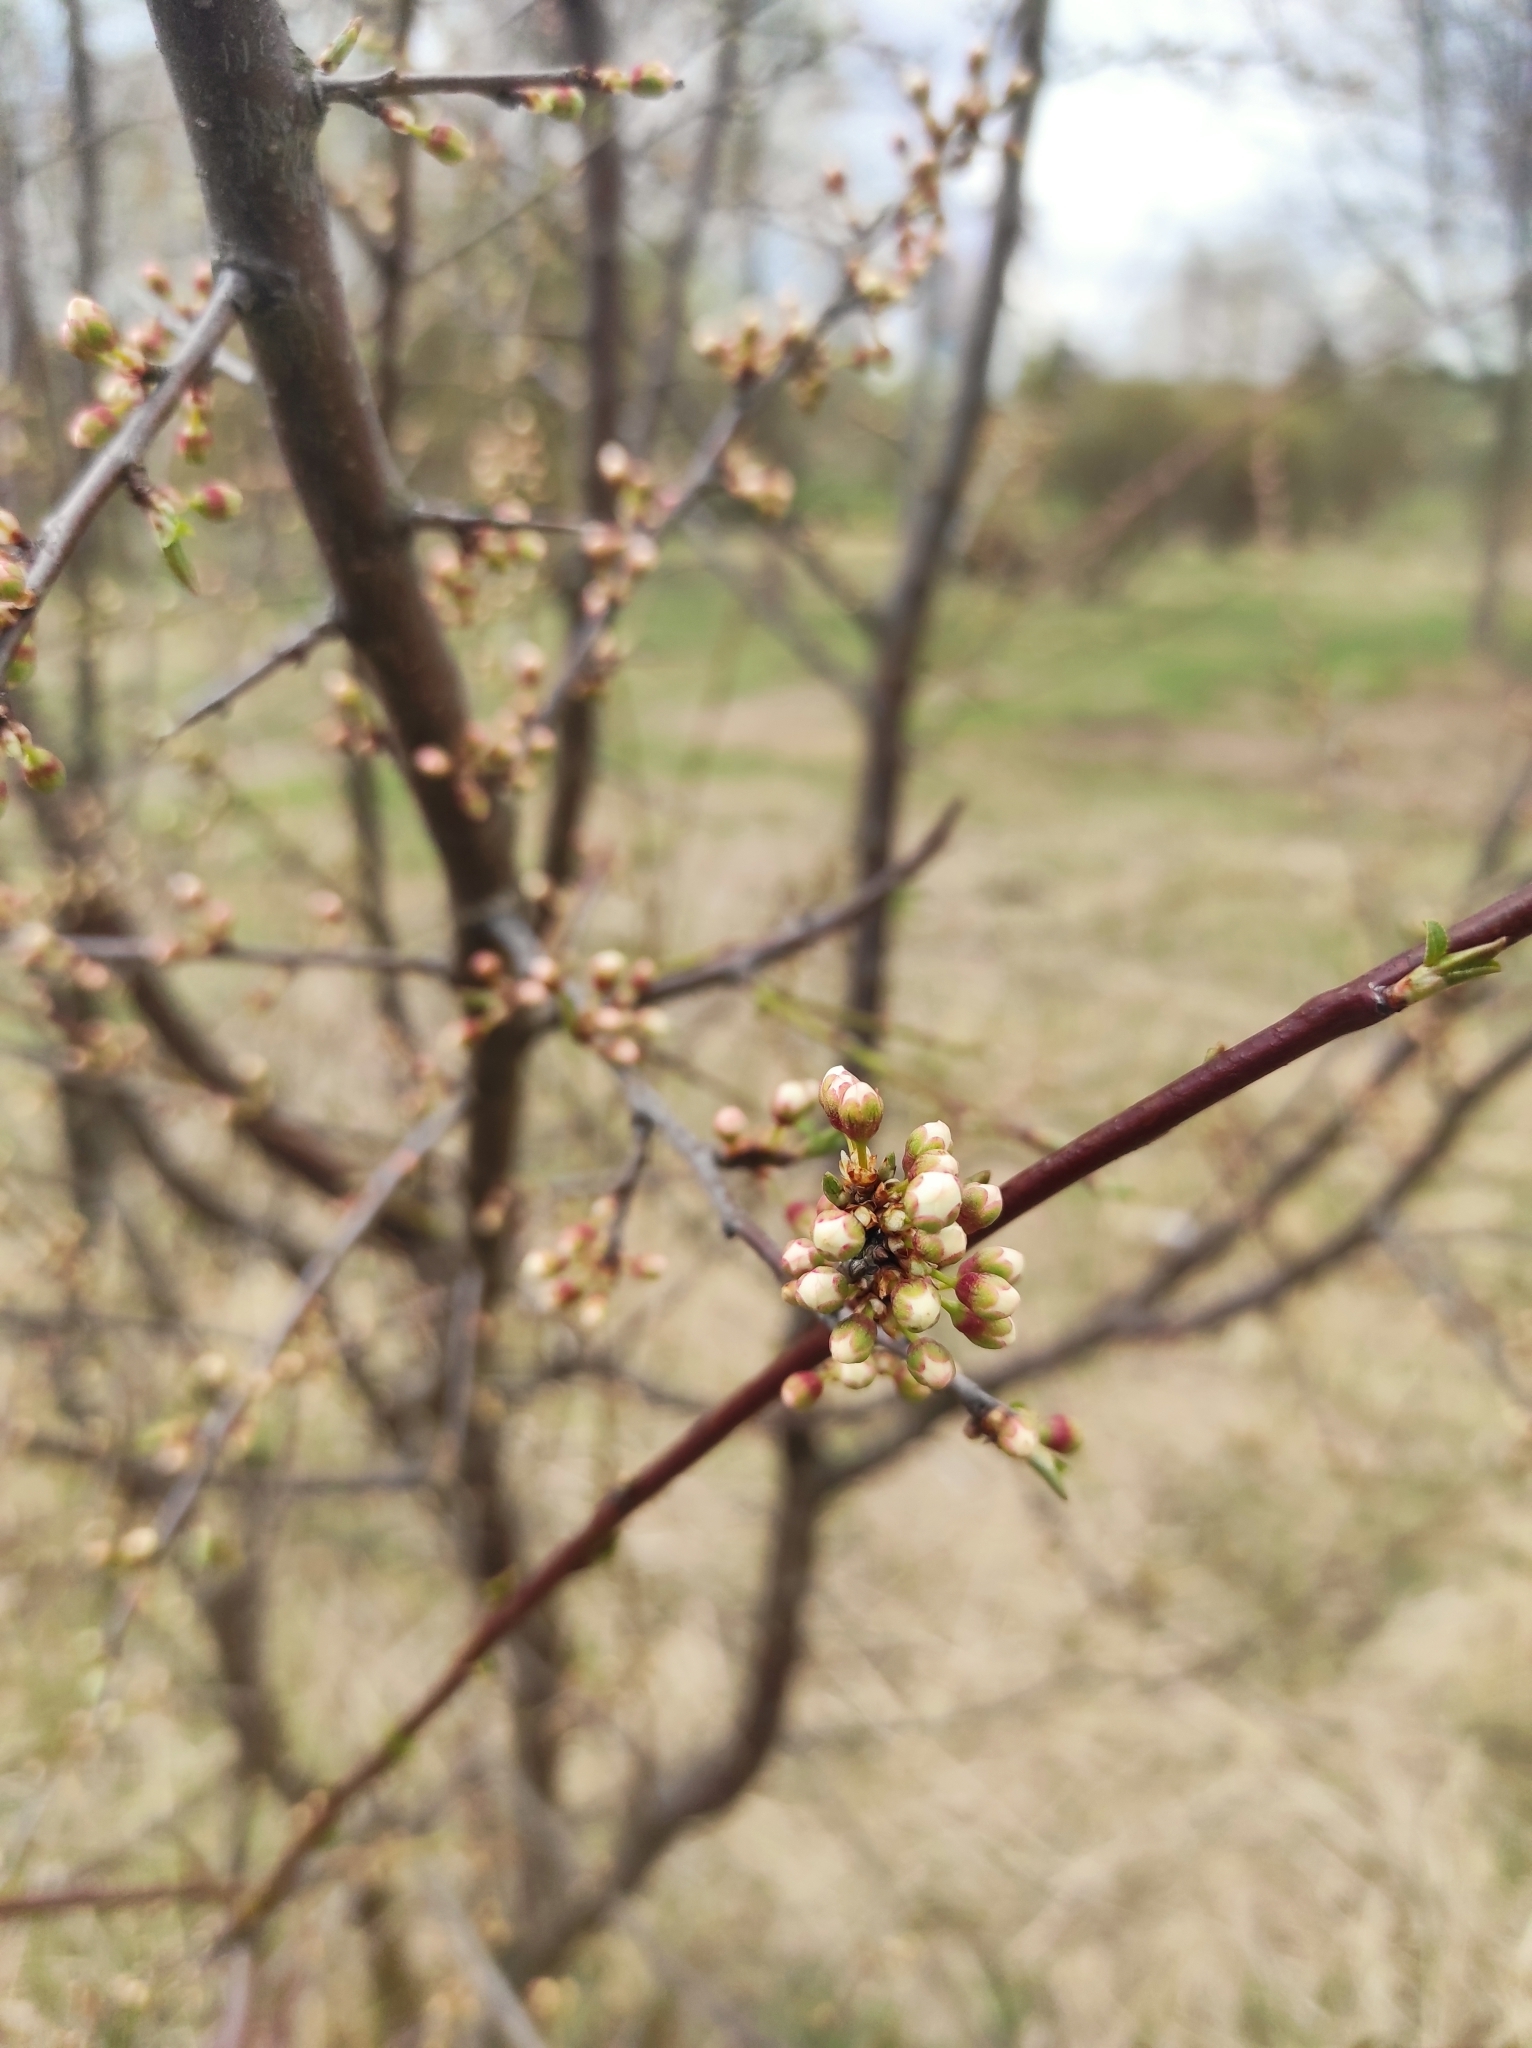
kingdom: Plantae
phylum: Tracheophyta
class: Magnoliopsida
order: Rosales
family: Rosaceae
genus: Prunus
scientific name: Prunus cerasifera
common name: Cherry plum
